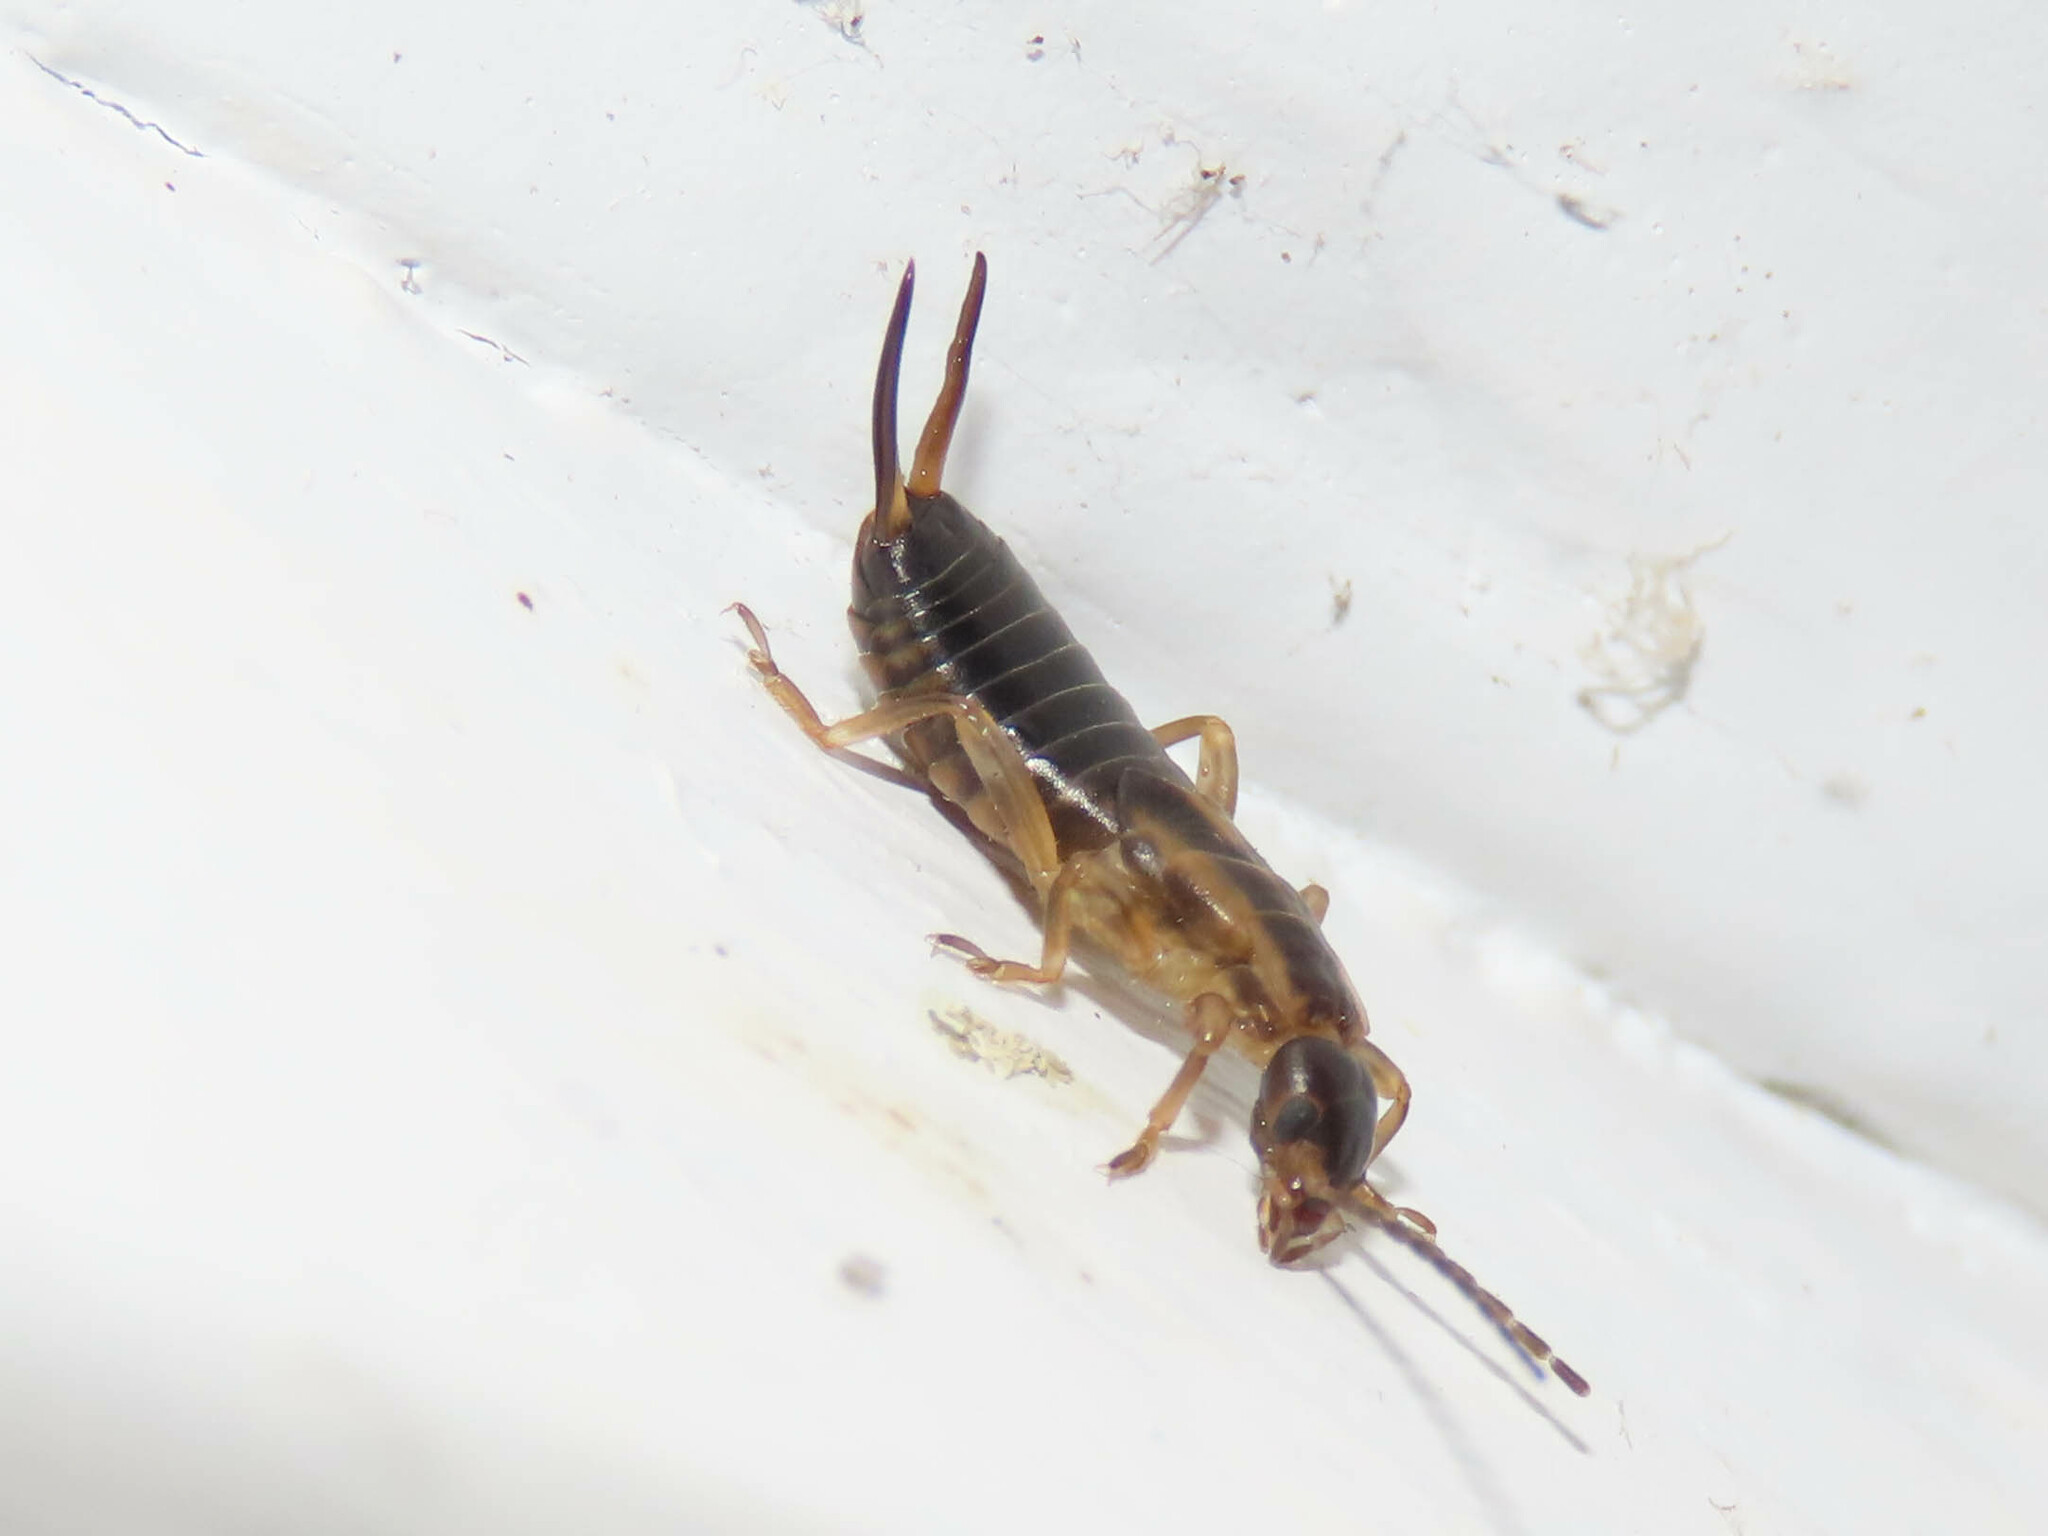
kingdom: Animalia
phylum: Arthropoda
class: Insecta
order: Dermaptera
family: Forficulidae
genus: Forficula
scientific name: Forficula
